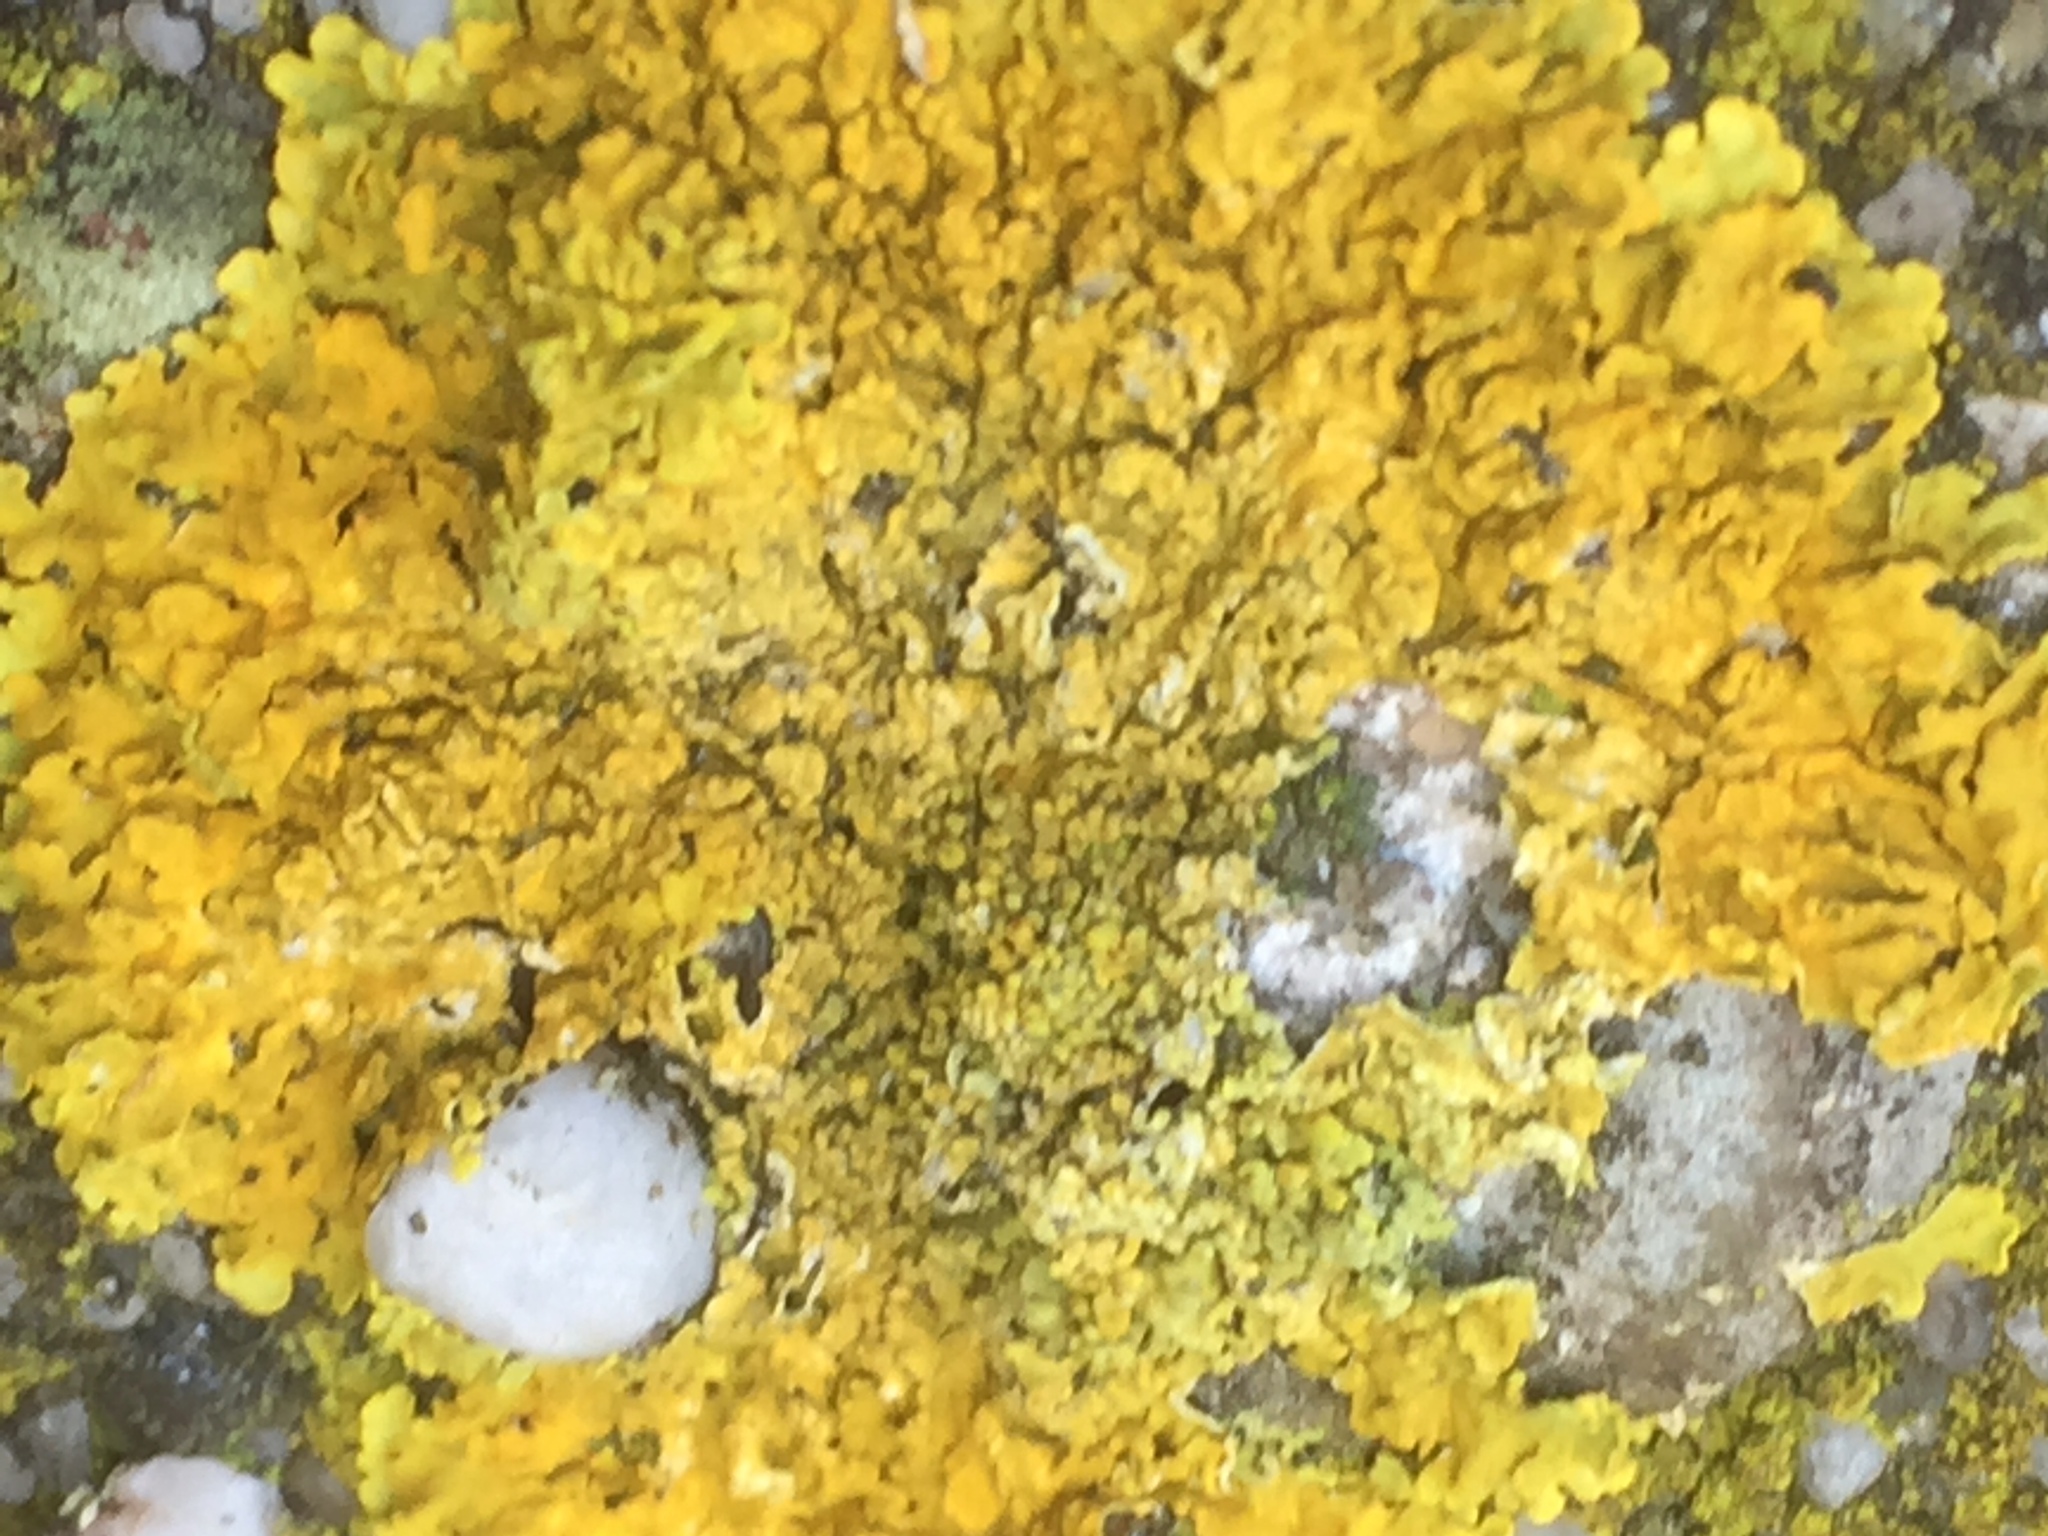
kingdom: Fungi
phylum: Ascomycota
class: Lecanoromycetes
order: Teloschistales
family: Teloschistaceae
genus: Xanthoria
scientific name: Xanthoria parietina
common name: Common orange lichen
